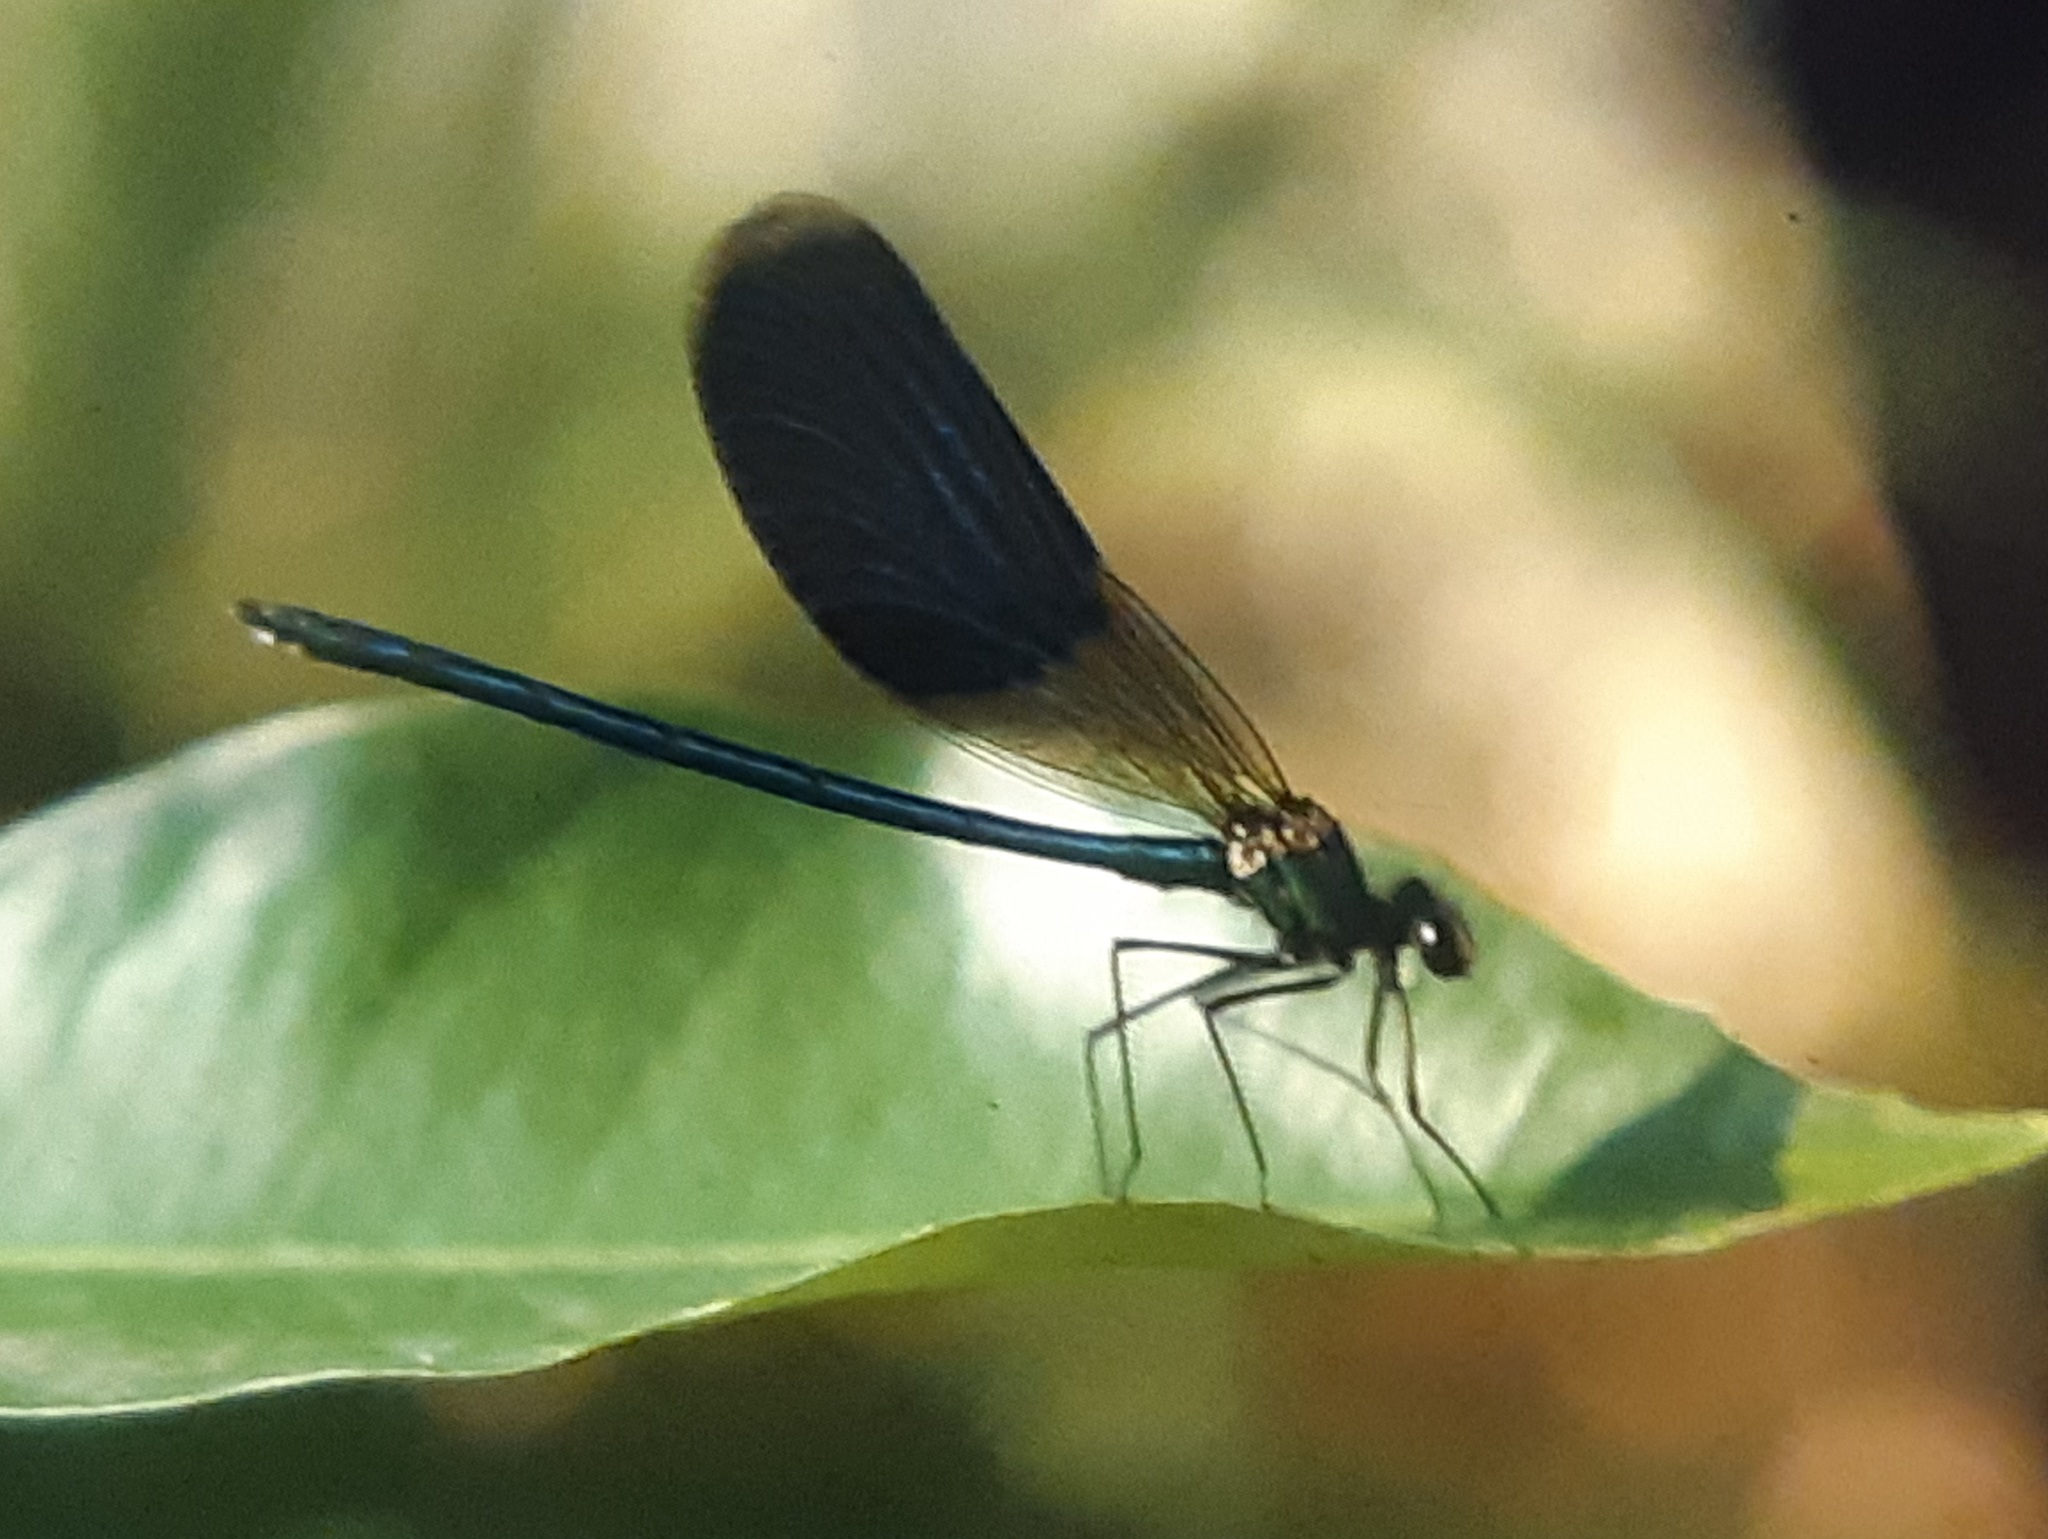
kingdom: Animalia
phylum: Arthropoda
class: Insecta
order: Odonata
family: Calopterygidae
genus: Calopteryx
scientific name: Calopteryx splendens
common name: Banded demoiselle
